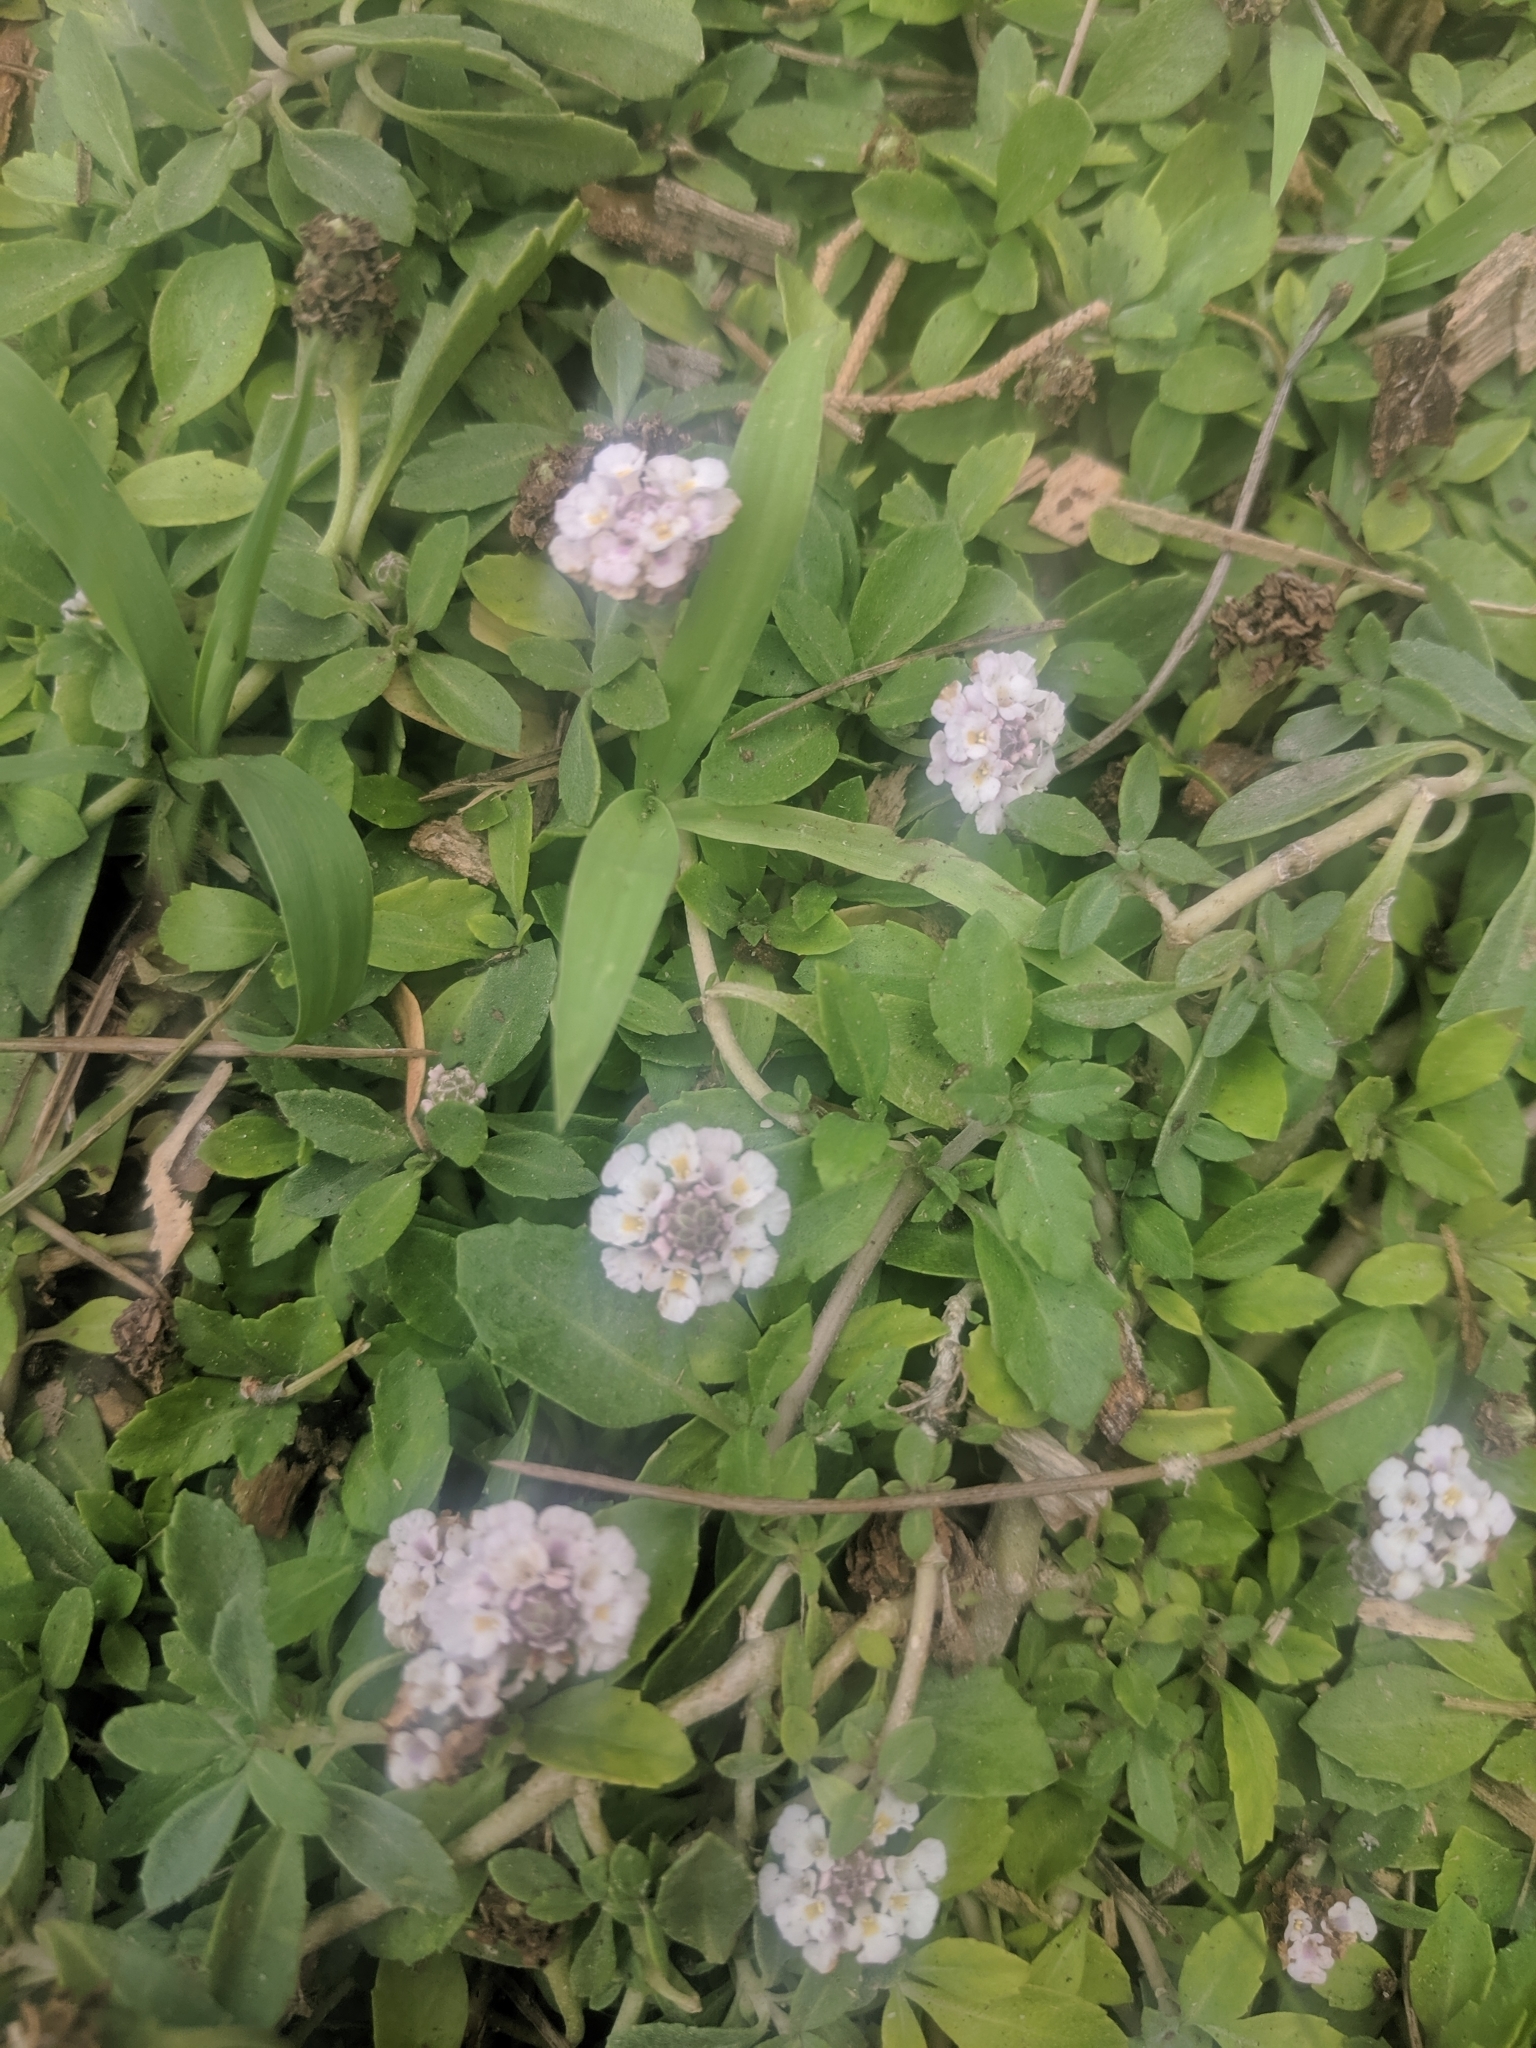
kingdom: Plantae
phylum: Tracheophyta
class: Magnoliopsida
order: Lamiales
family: Verbenaceae
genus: Phyla
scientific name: Phyla nodiflora
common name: Frogfruit
